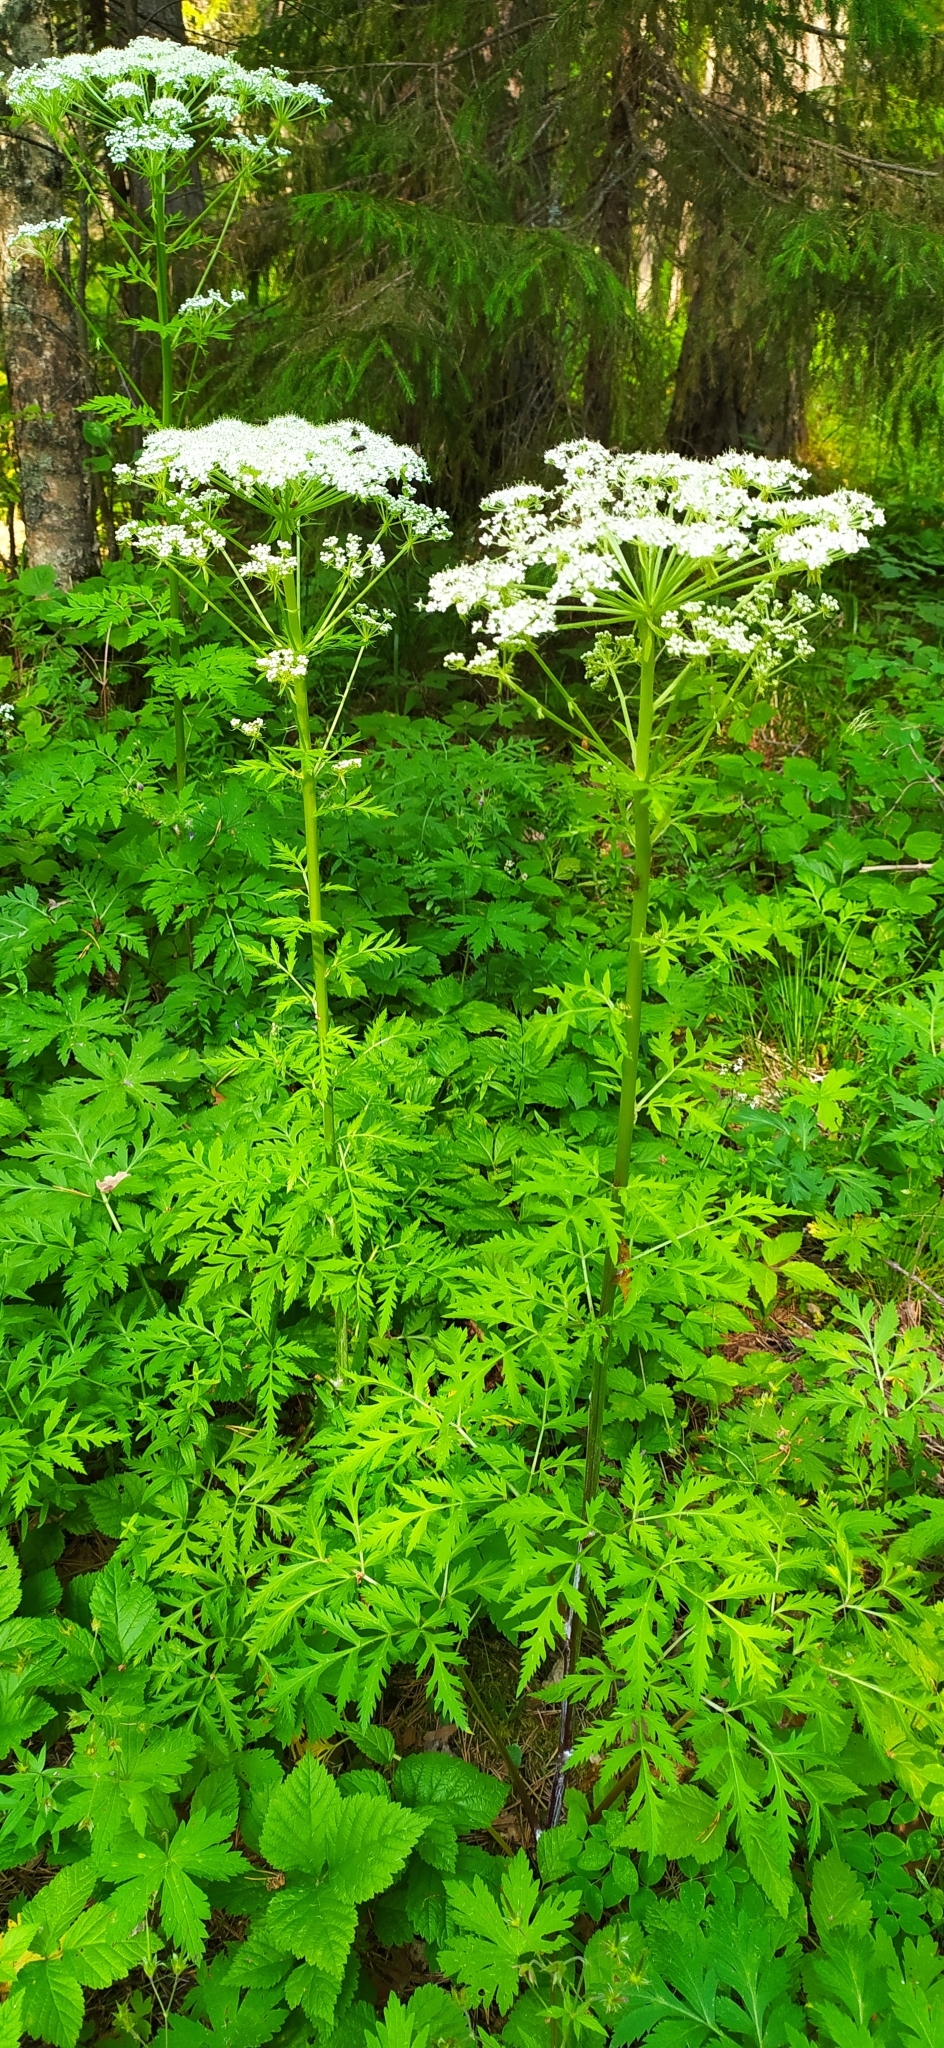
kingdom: Plantae
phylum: Tracheophyta
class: Magnoliopsida
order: Apiales
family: Apiaceae
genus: Pleurospermum
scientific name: Pleurospermum uralense
